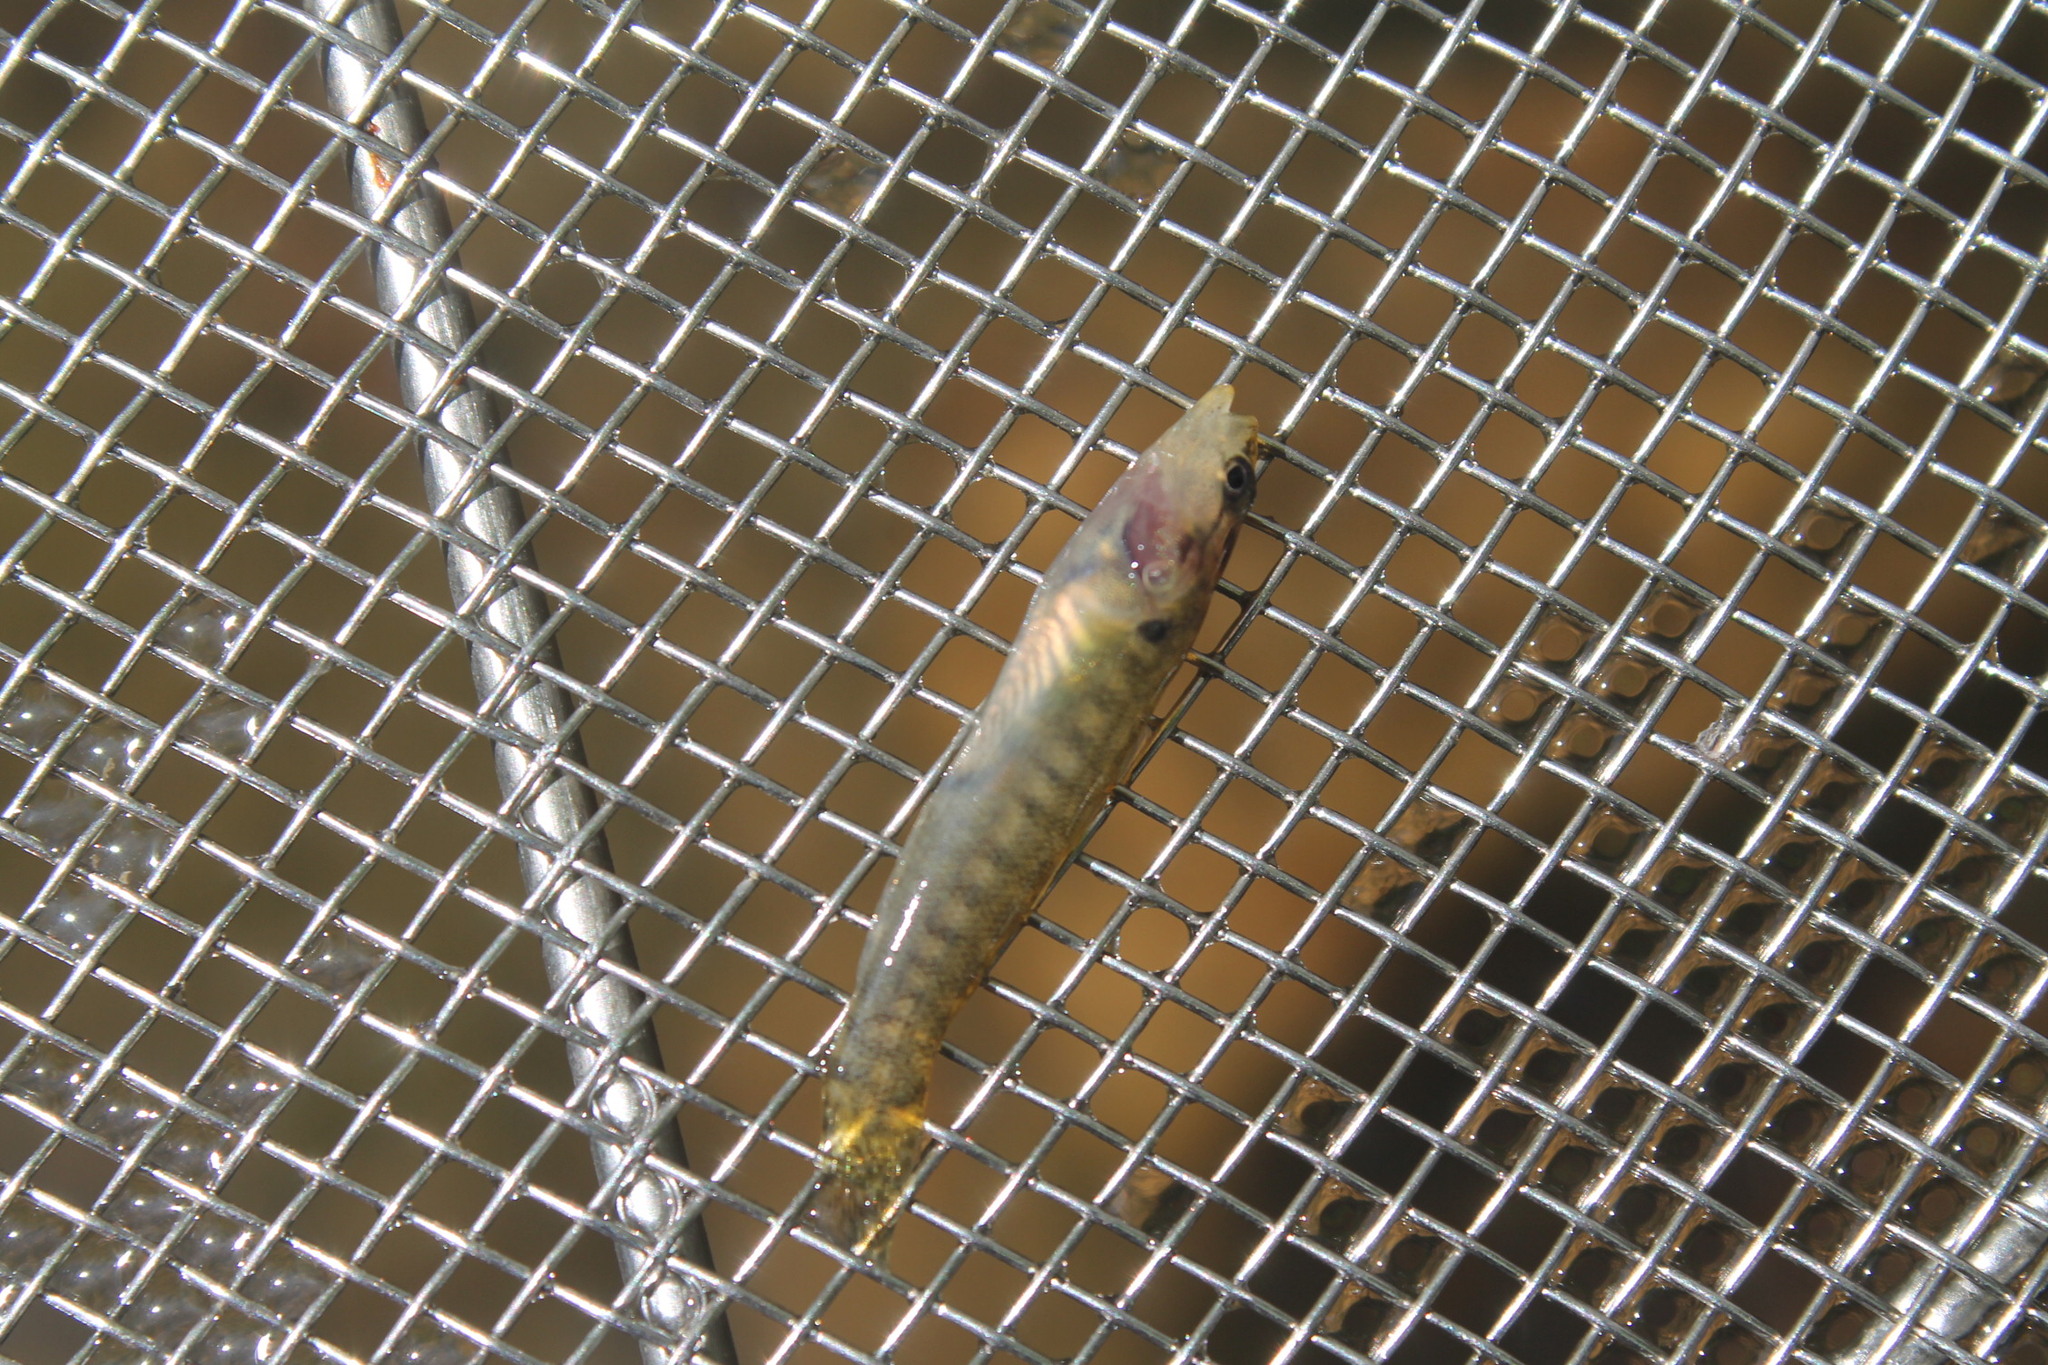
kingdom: Animalia
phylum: Chordata
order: Perciformes
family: Percidae
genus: Etheostoma
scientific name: Etheostoma flabellare
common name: Fantail darter
